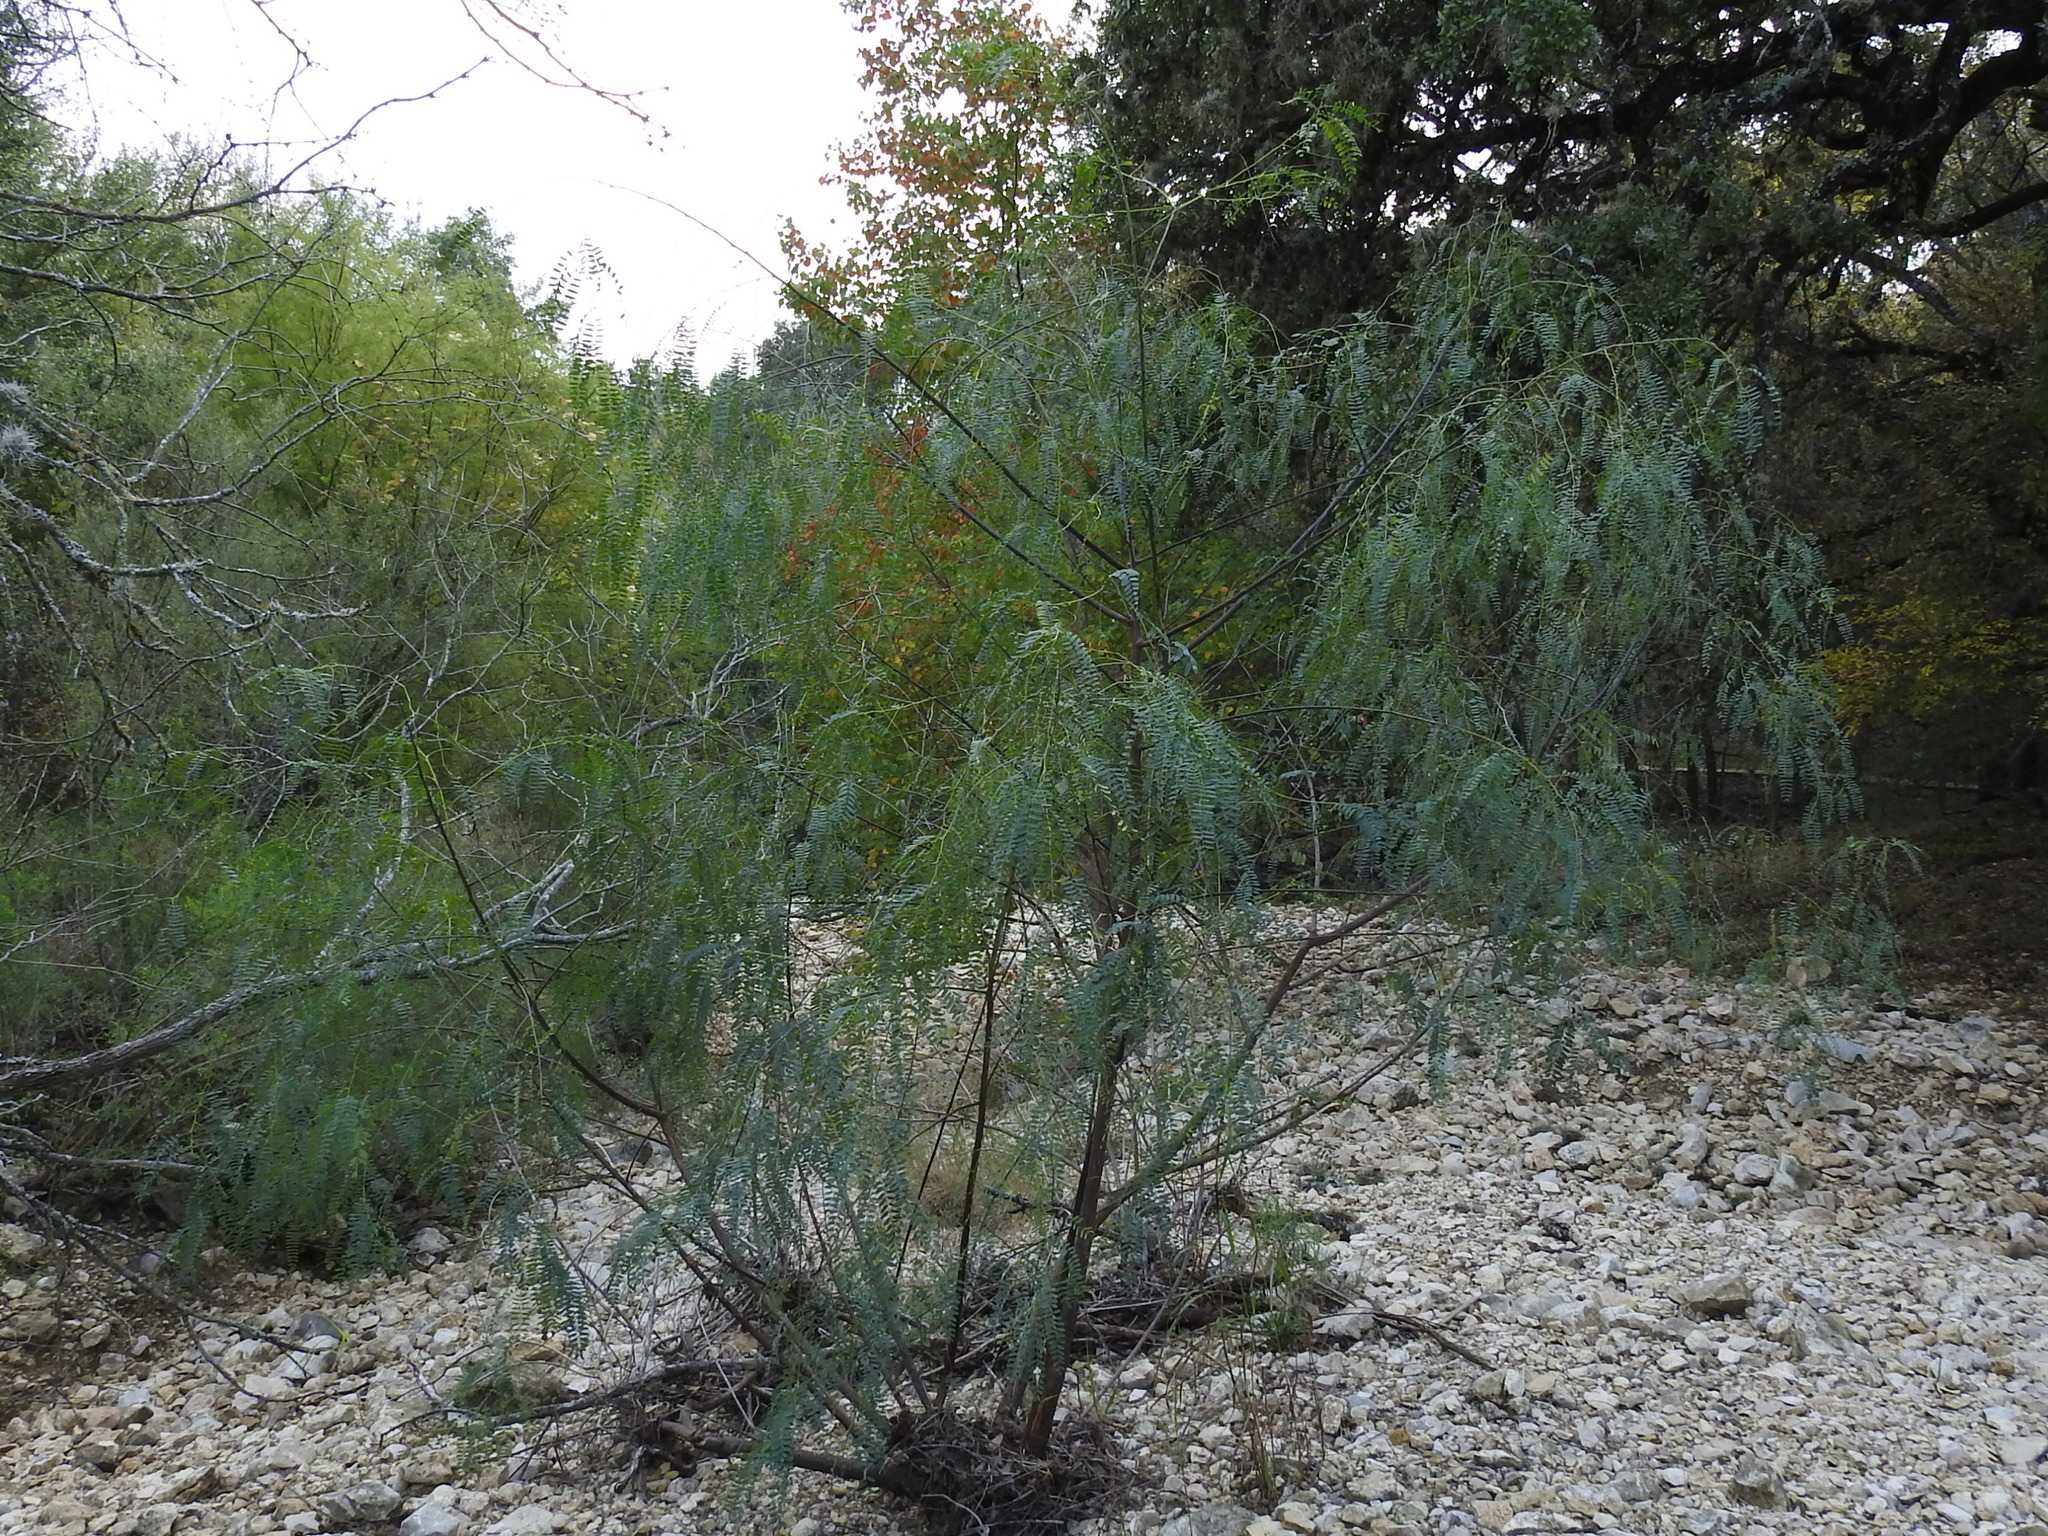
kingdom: Plantae
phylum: Tracheophyta
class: Magnoliopsida
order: Fabales
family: Fabaceae
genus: Sesbania
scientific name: Sesbania drummondii
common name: Poison-bean
